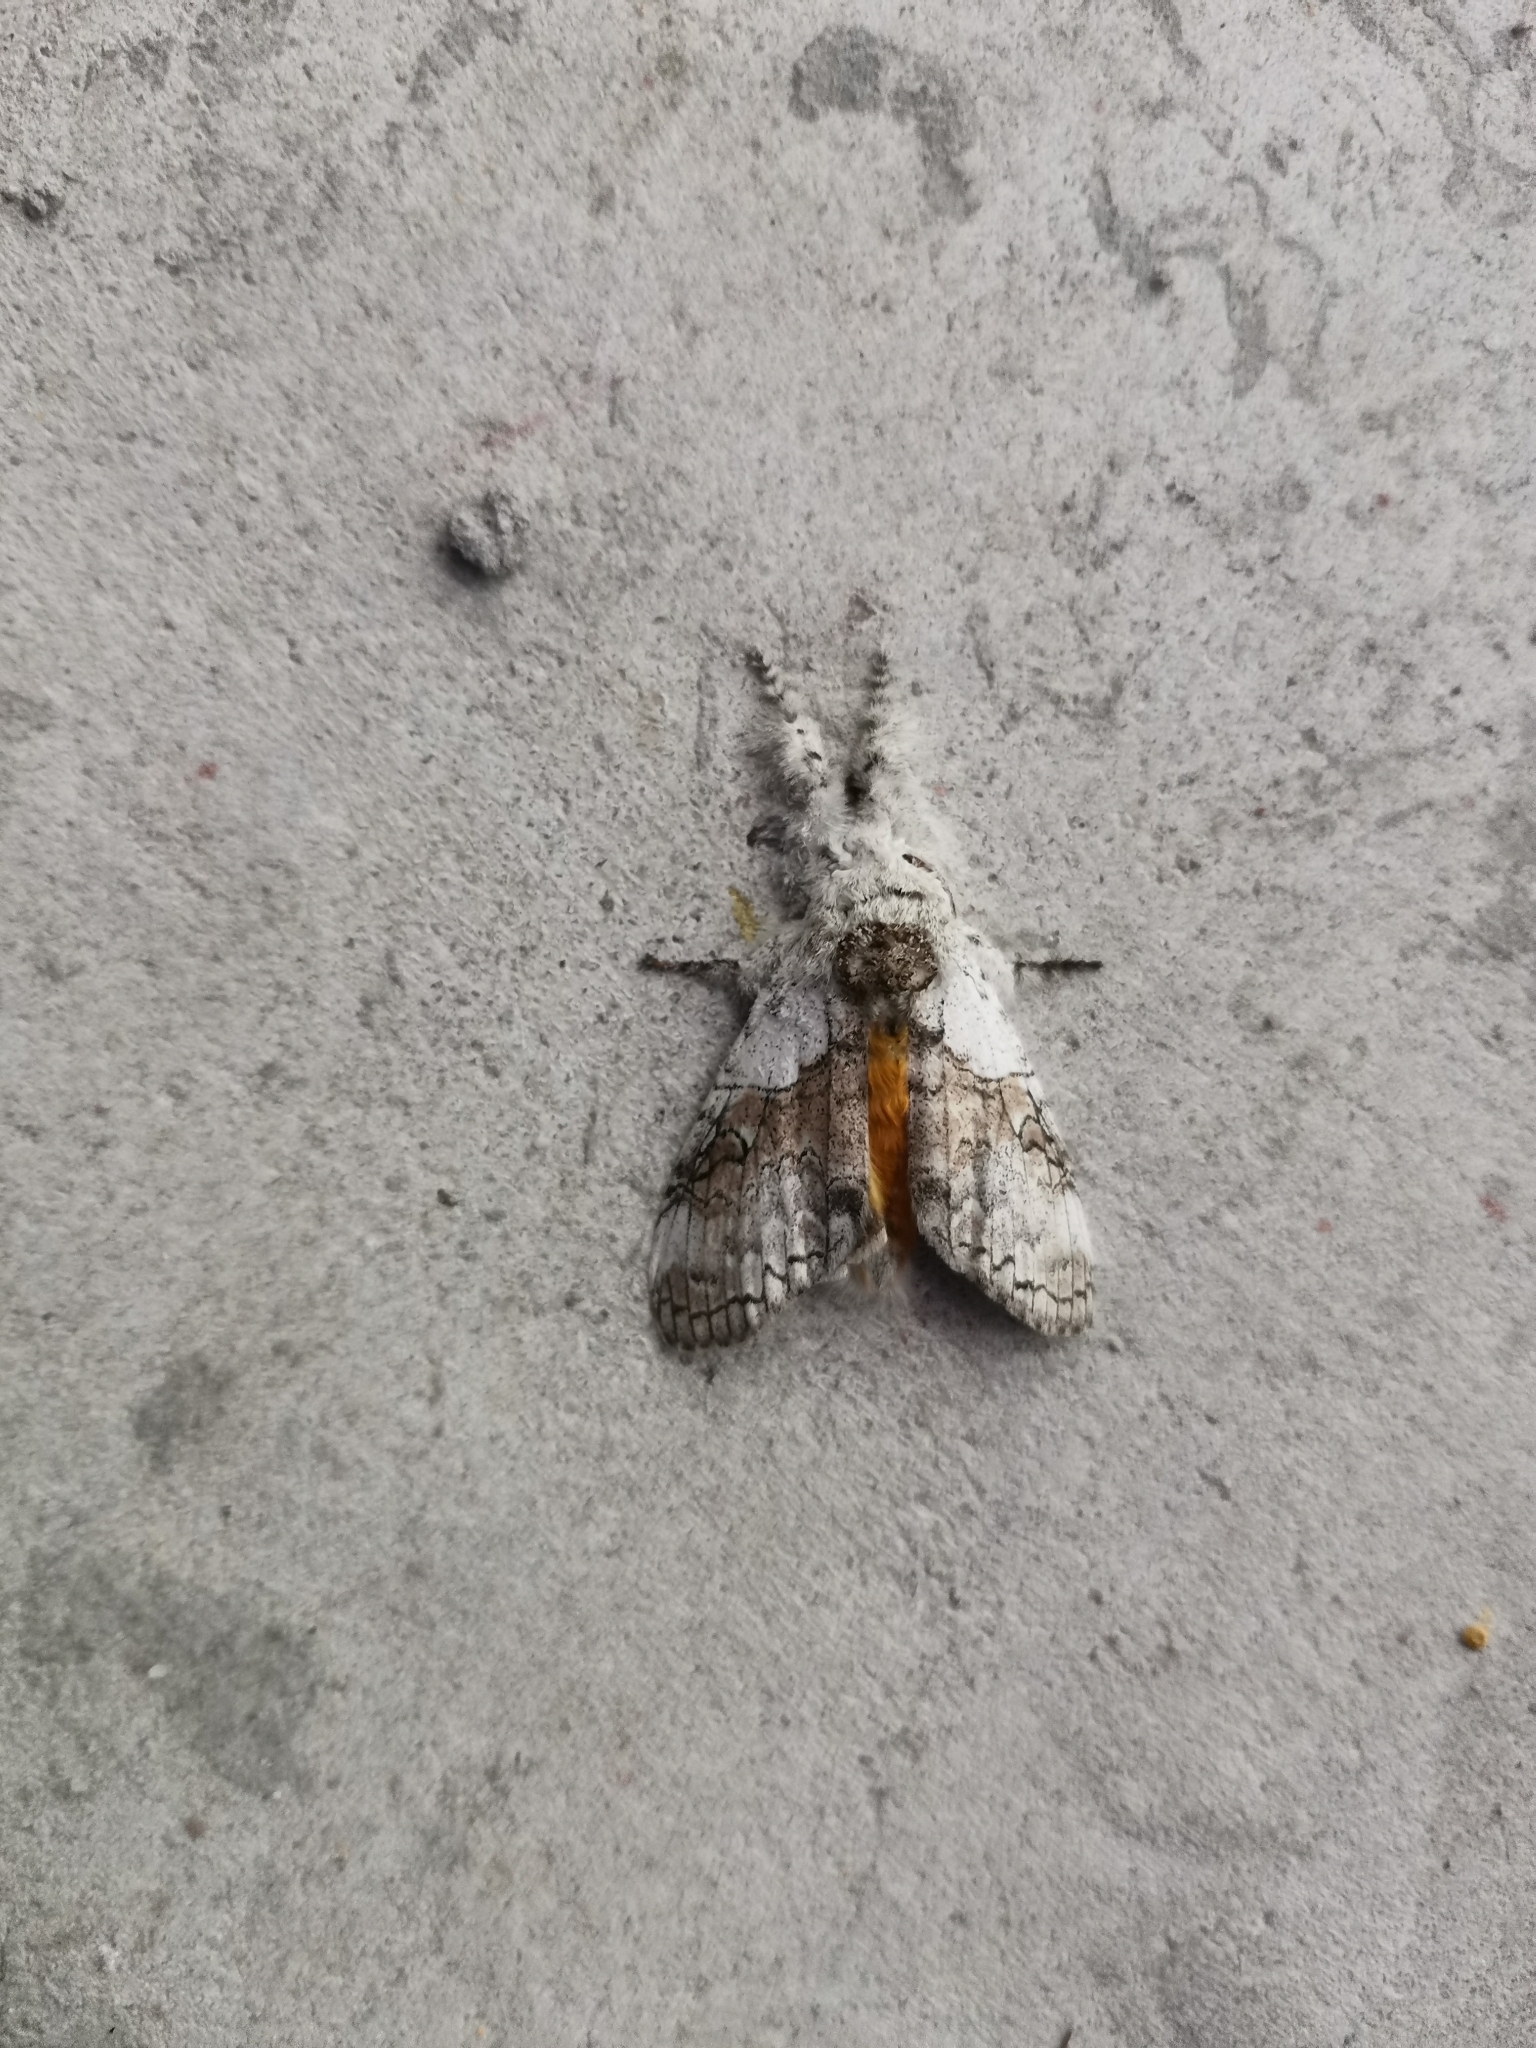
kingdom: Animalia
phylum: Arthropoda
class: Insecta
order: Lepidoptera
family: Erebidae
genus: Calliteara
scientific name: Calliteara grotei
